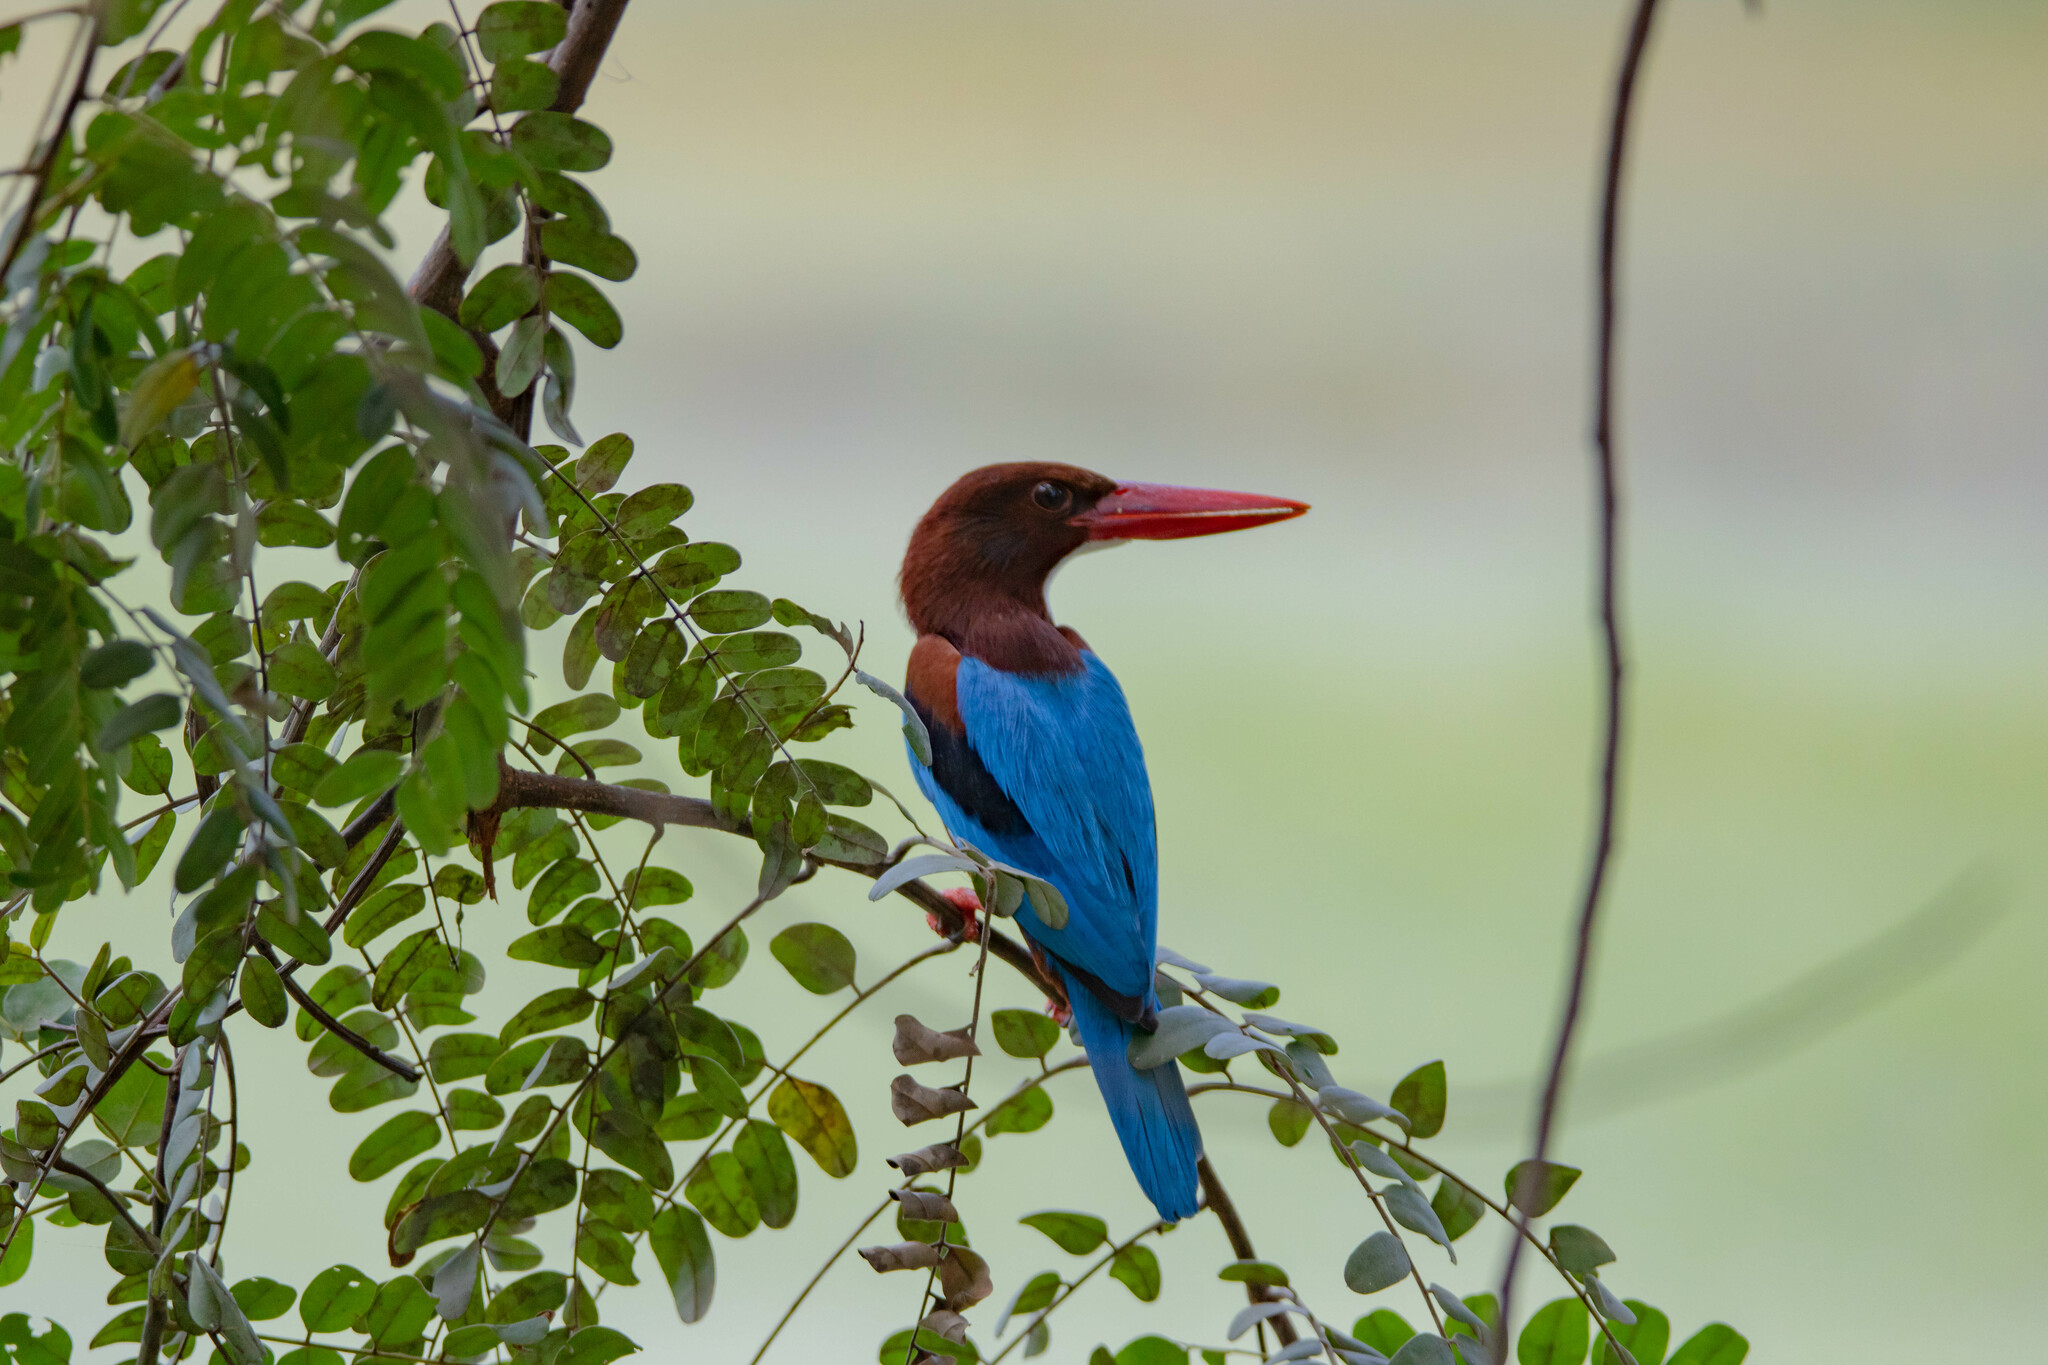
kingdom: Animalia
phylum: Chordata
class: Aves
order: Coraciiformes
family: Alcedinidae
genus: Halcyon
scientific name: Halcyon smyrnensis
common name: White-throated kingfisher
